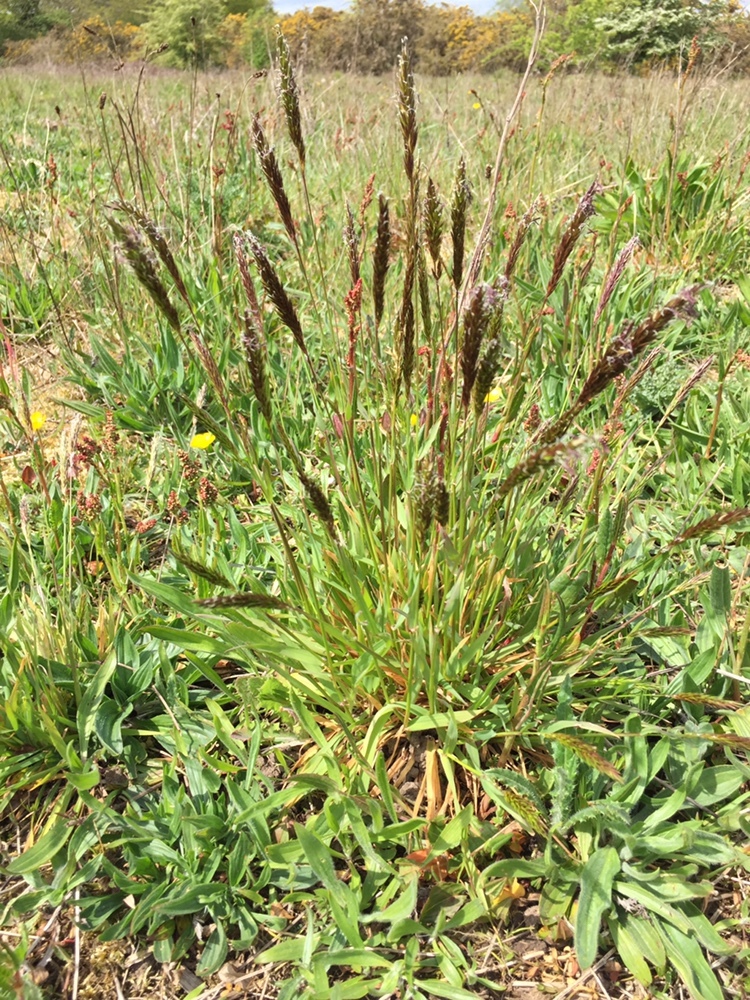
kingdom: Plantae
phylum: Tracheophyta
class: Liliopsida
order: Poales
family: Poaceae
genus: Anthoxanthum
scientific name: Anthoxanthum odoratum
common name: Sweet vernalgrass
